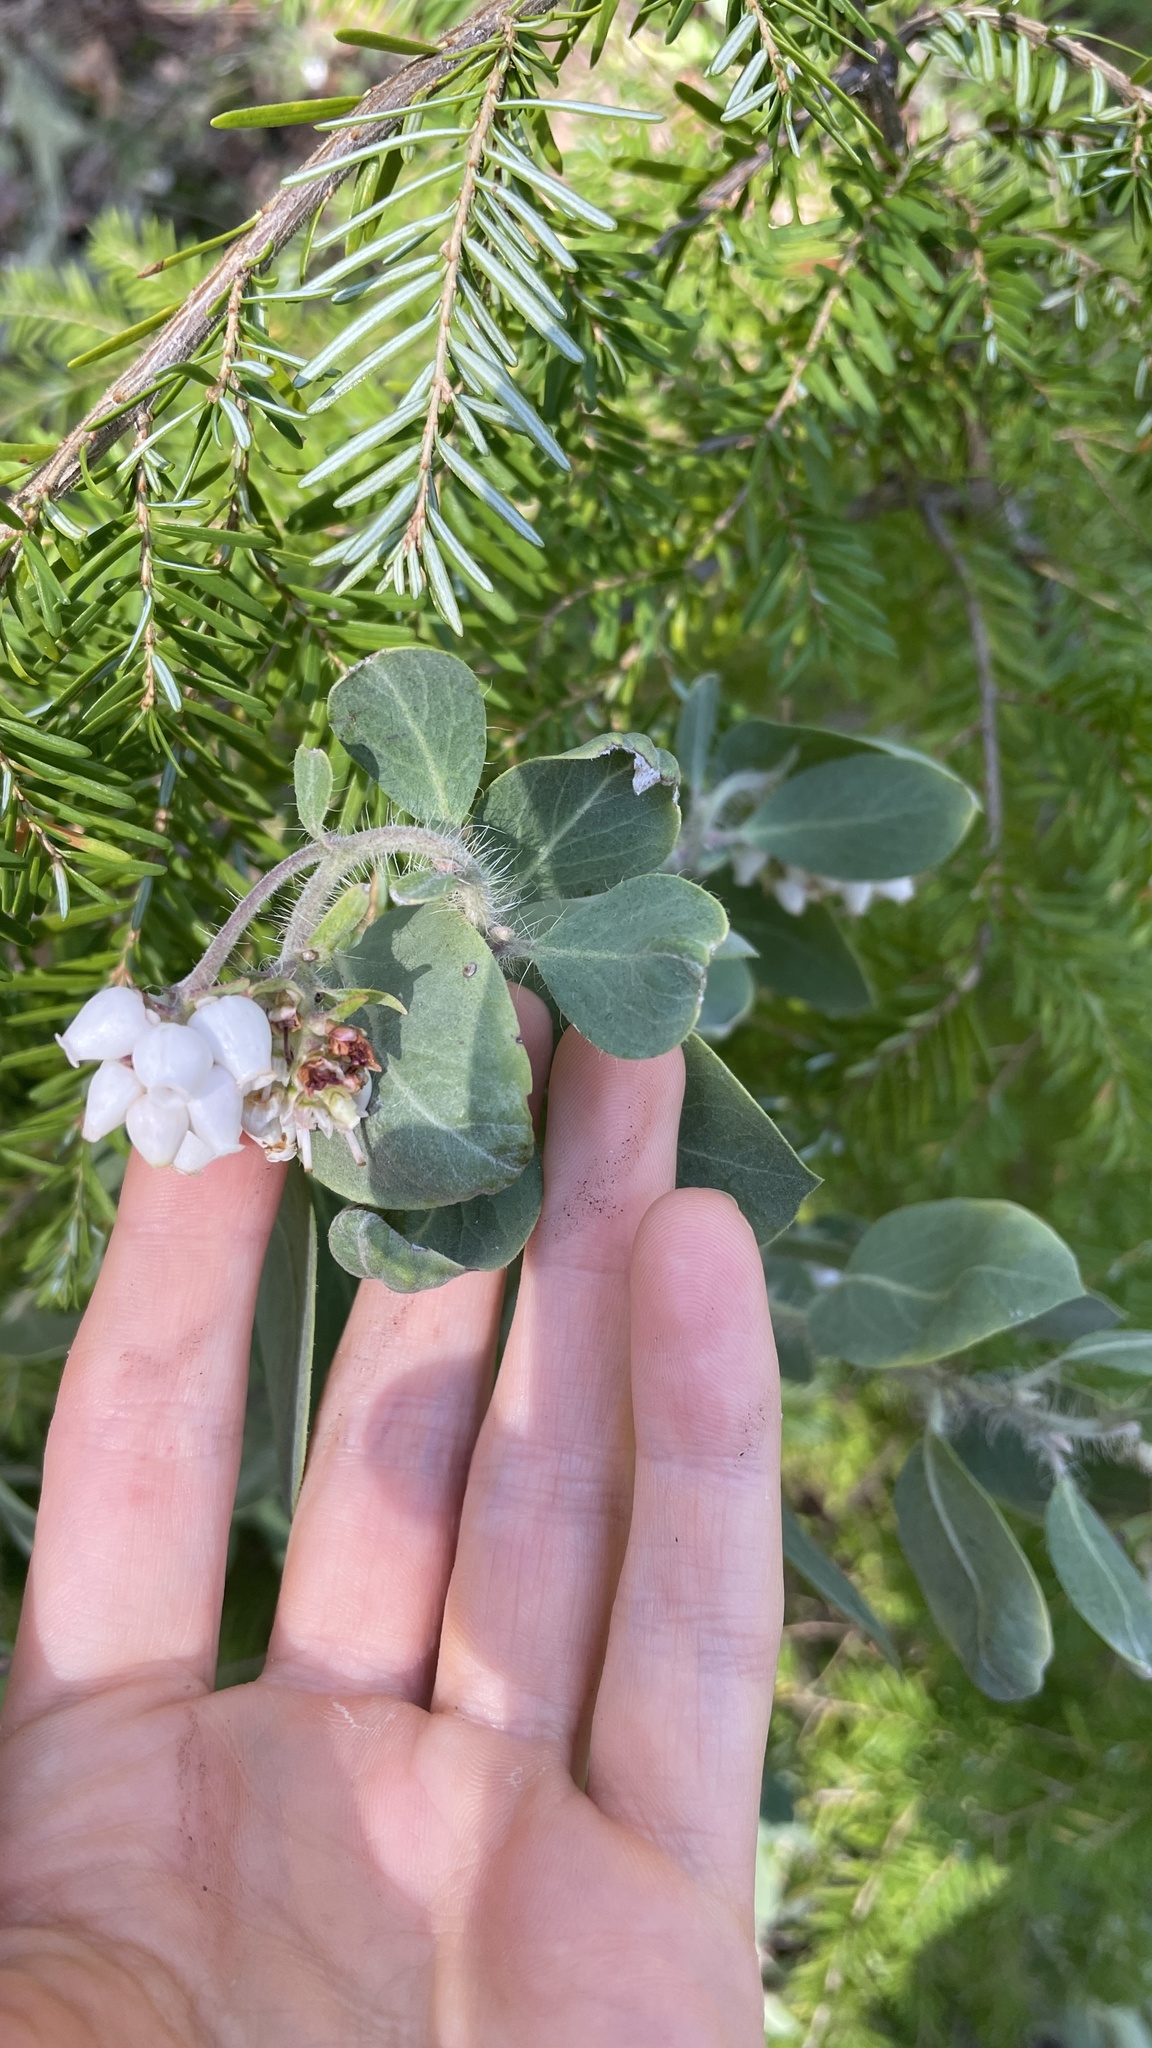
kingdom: Plantae
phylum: Tracheophyta
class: Magnoliopsida
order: Ericales
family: Ericaceae
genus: Arctostaphylos
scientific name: Arctostaphylos columbiana
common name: Bristly bearberry
